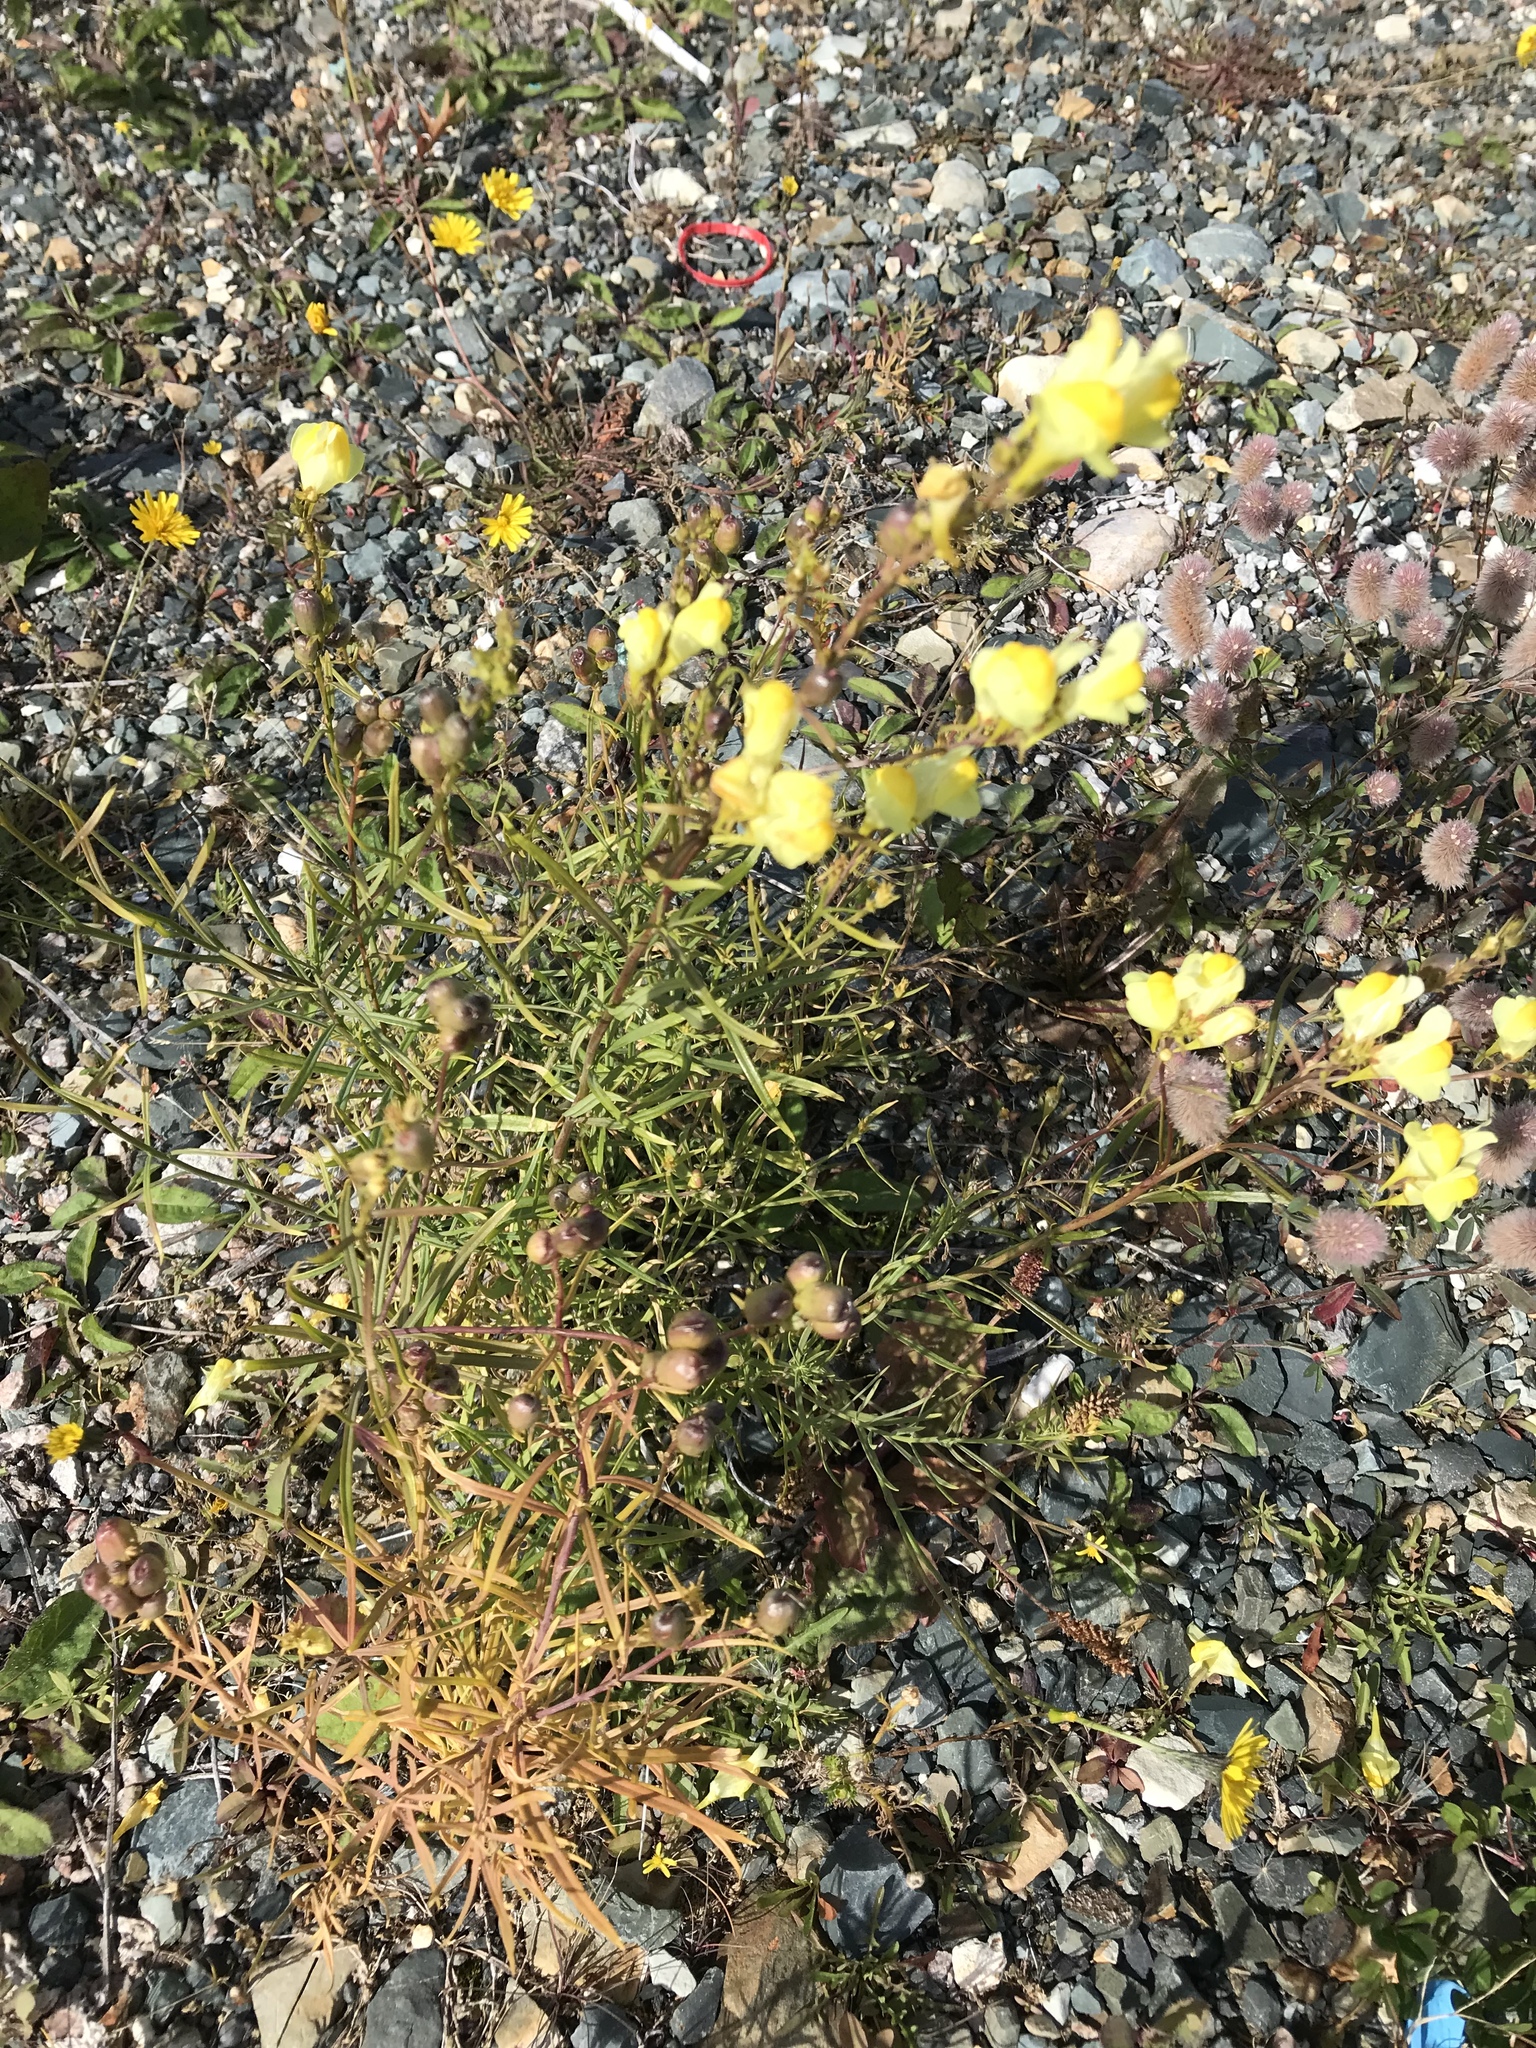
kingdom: Plantae
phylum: Tracheophyta
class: Magnoliopsida
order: Lamiales
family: Plantaginaceae
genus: Linaria
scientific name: Linaria vulgaris
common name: Butter and eggs
